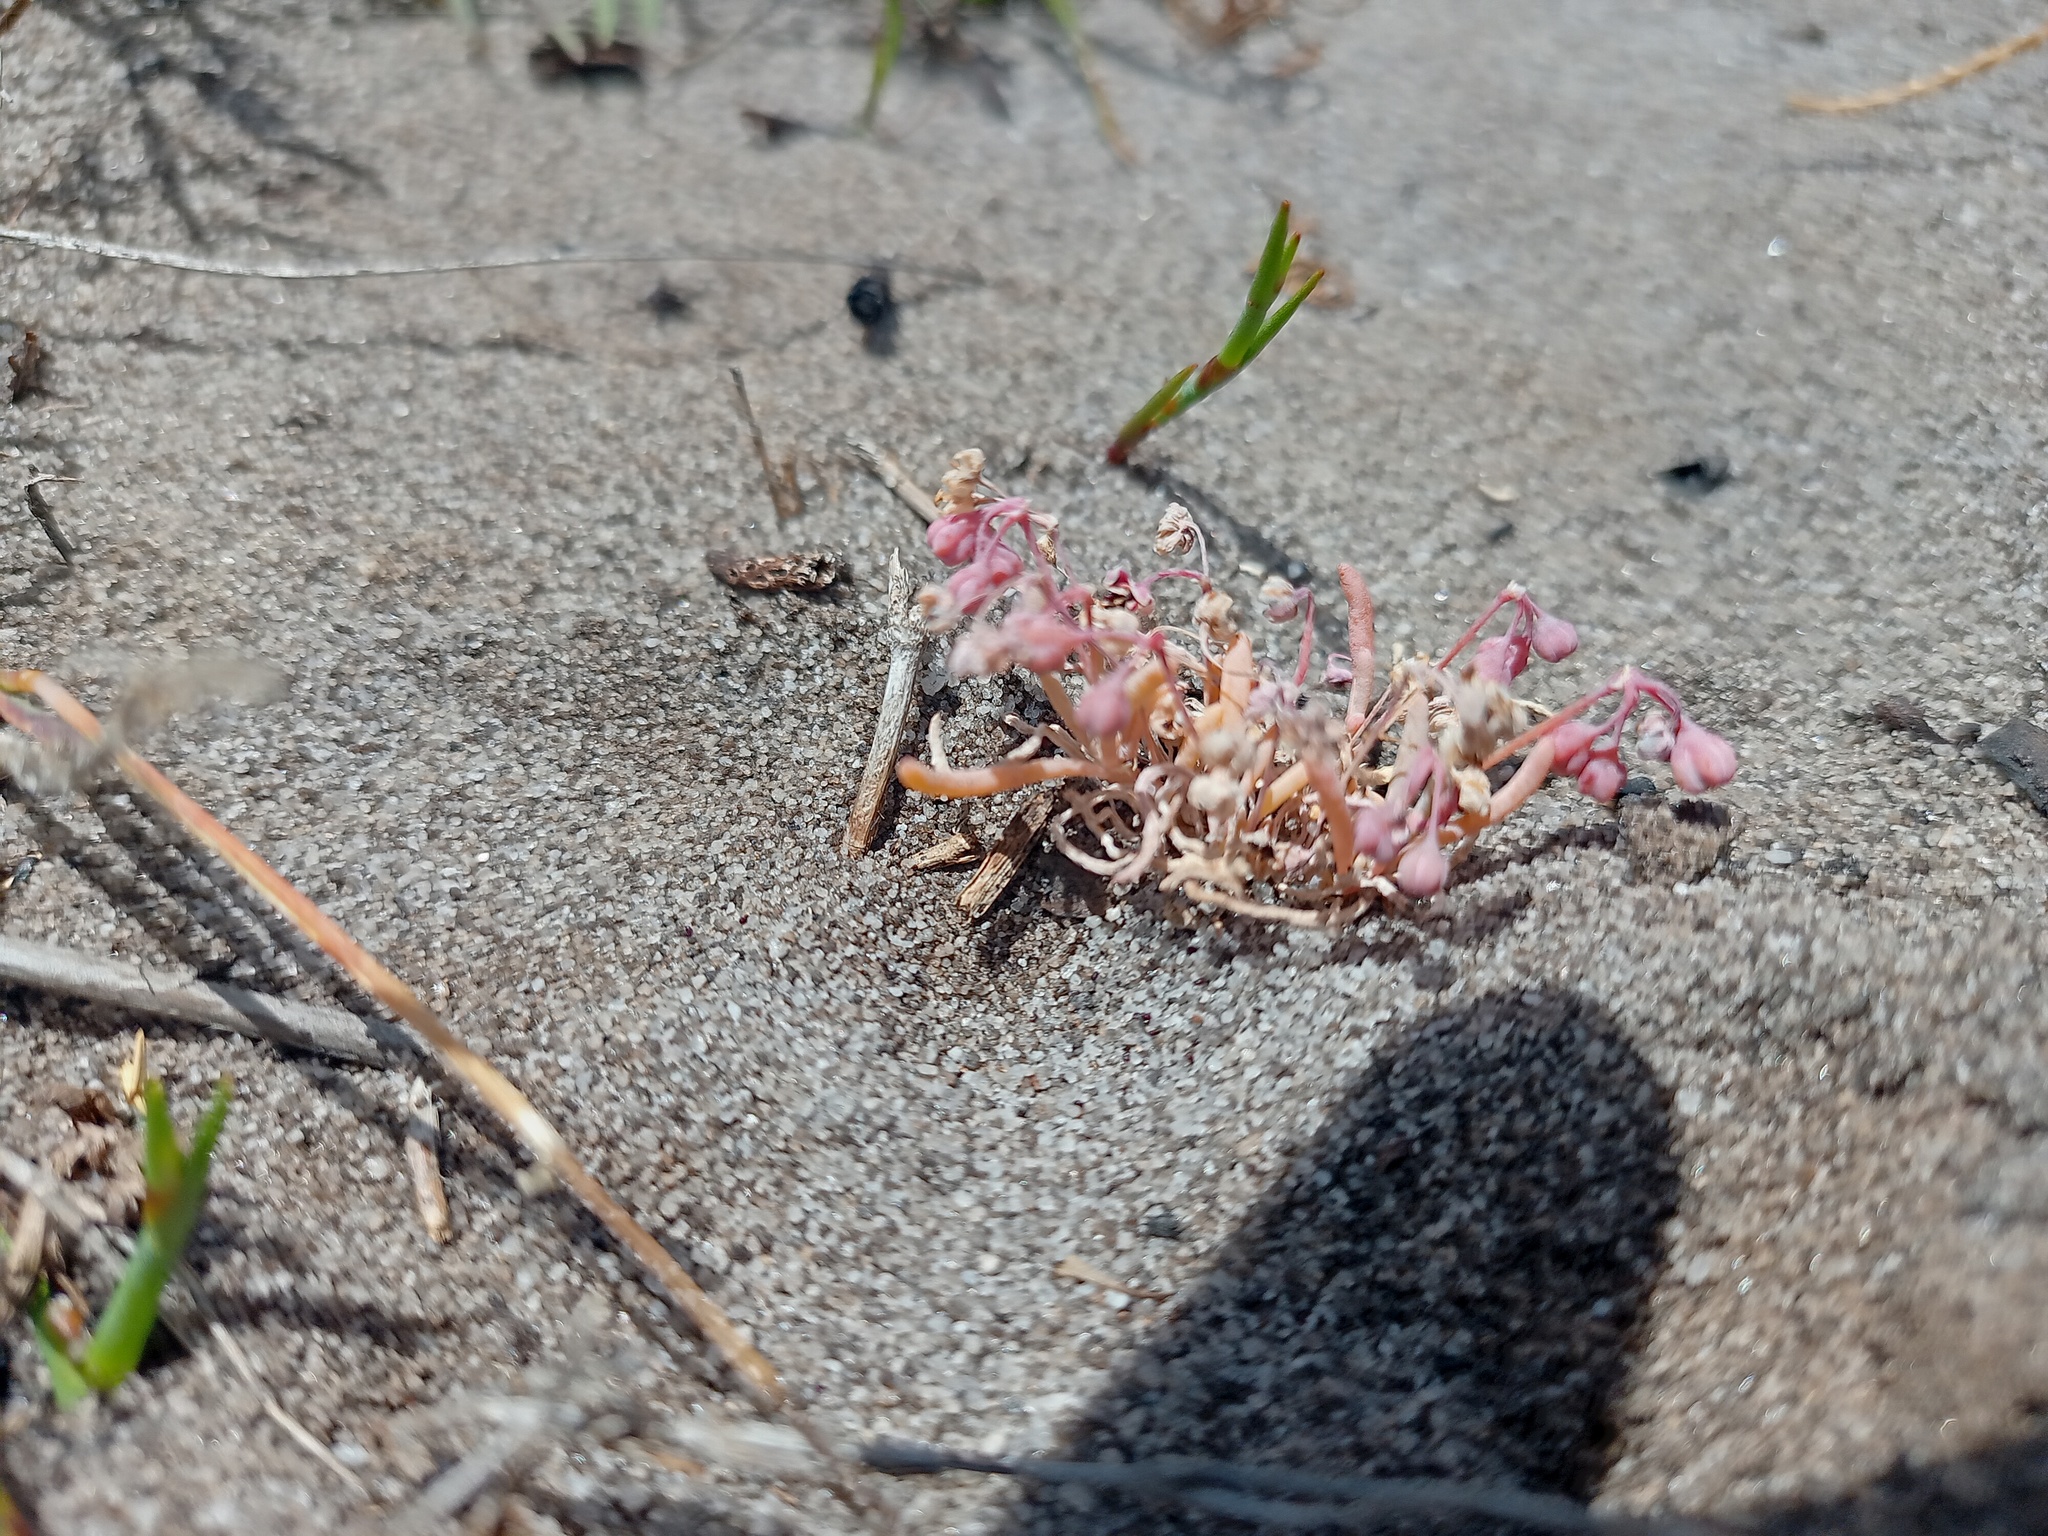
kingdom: Plantae
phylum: Tracheophyta
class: Magnoliopsida
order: Caryophyllales
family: Kewaceae
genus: Kewa
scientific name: Kewa arenicola
